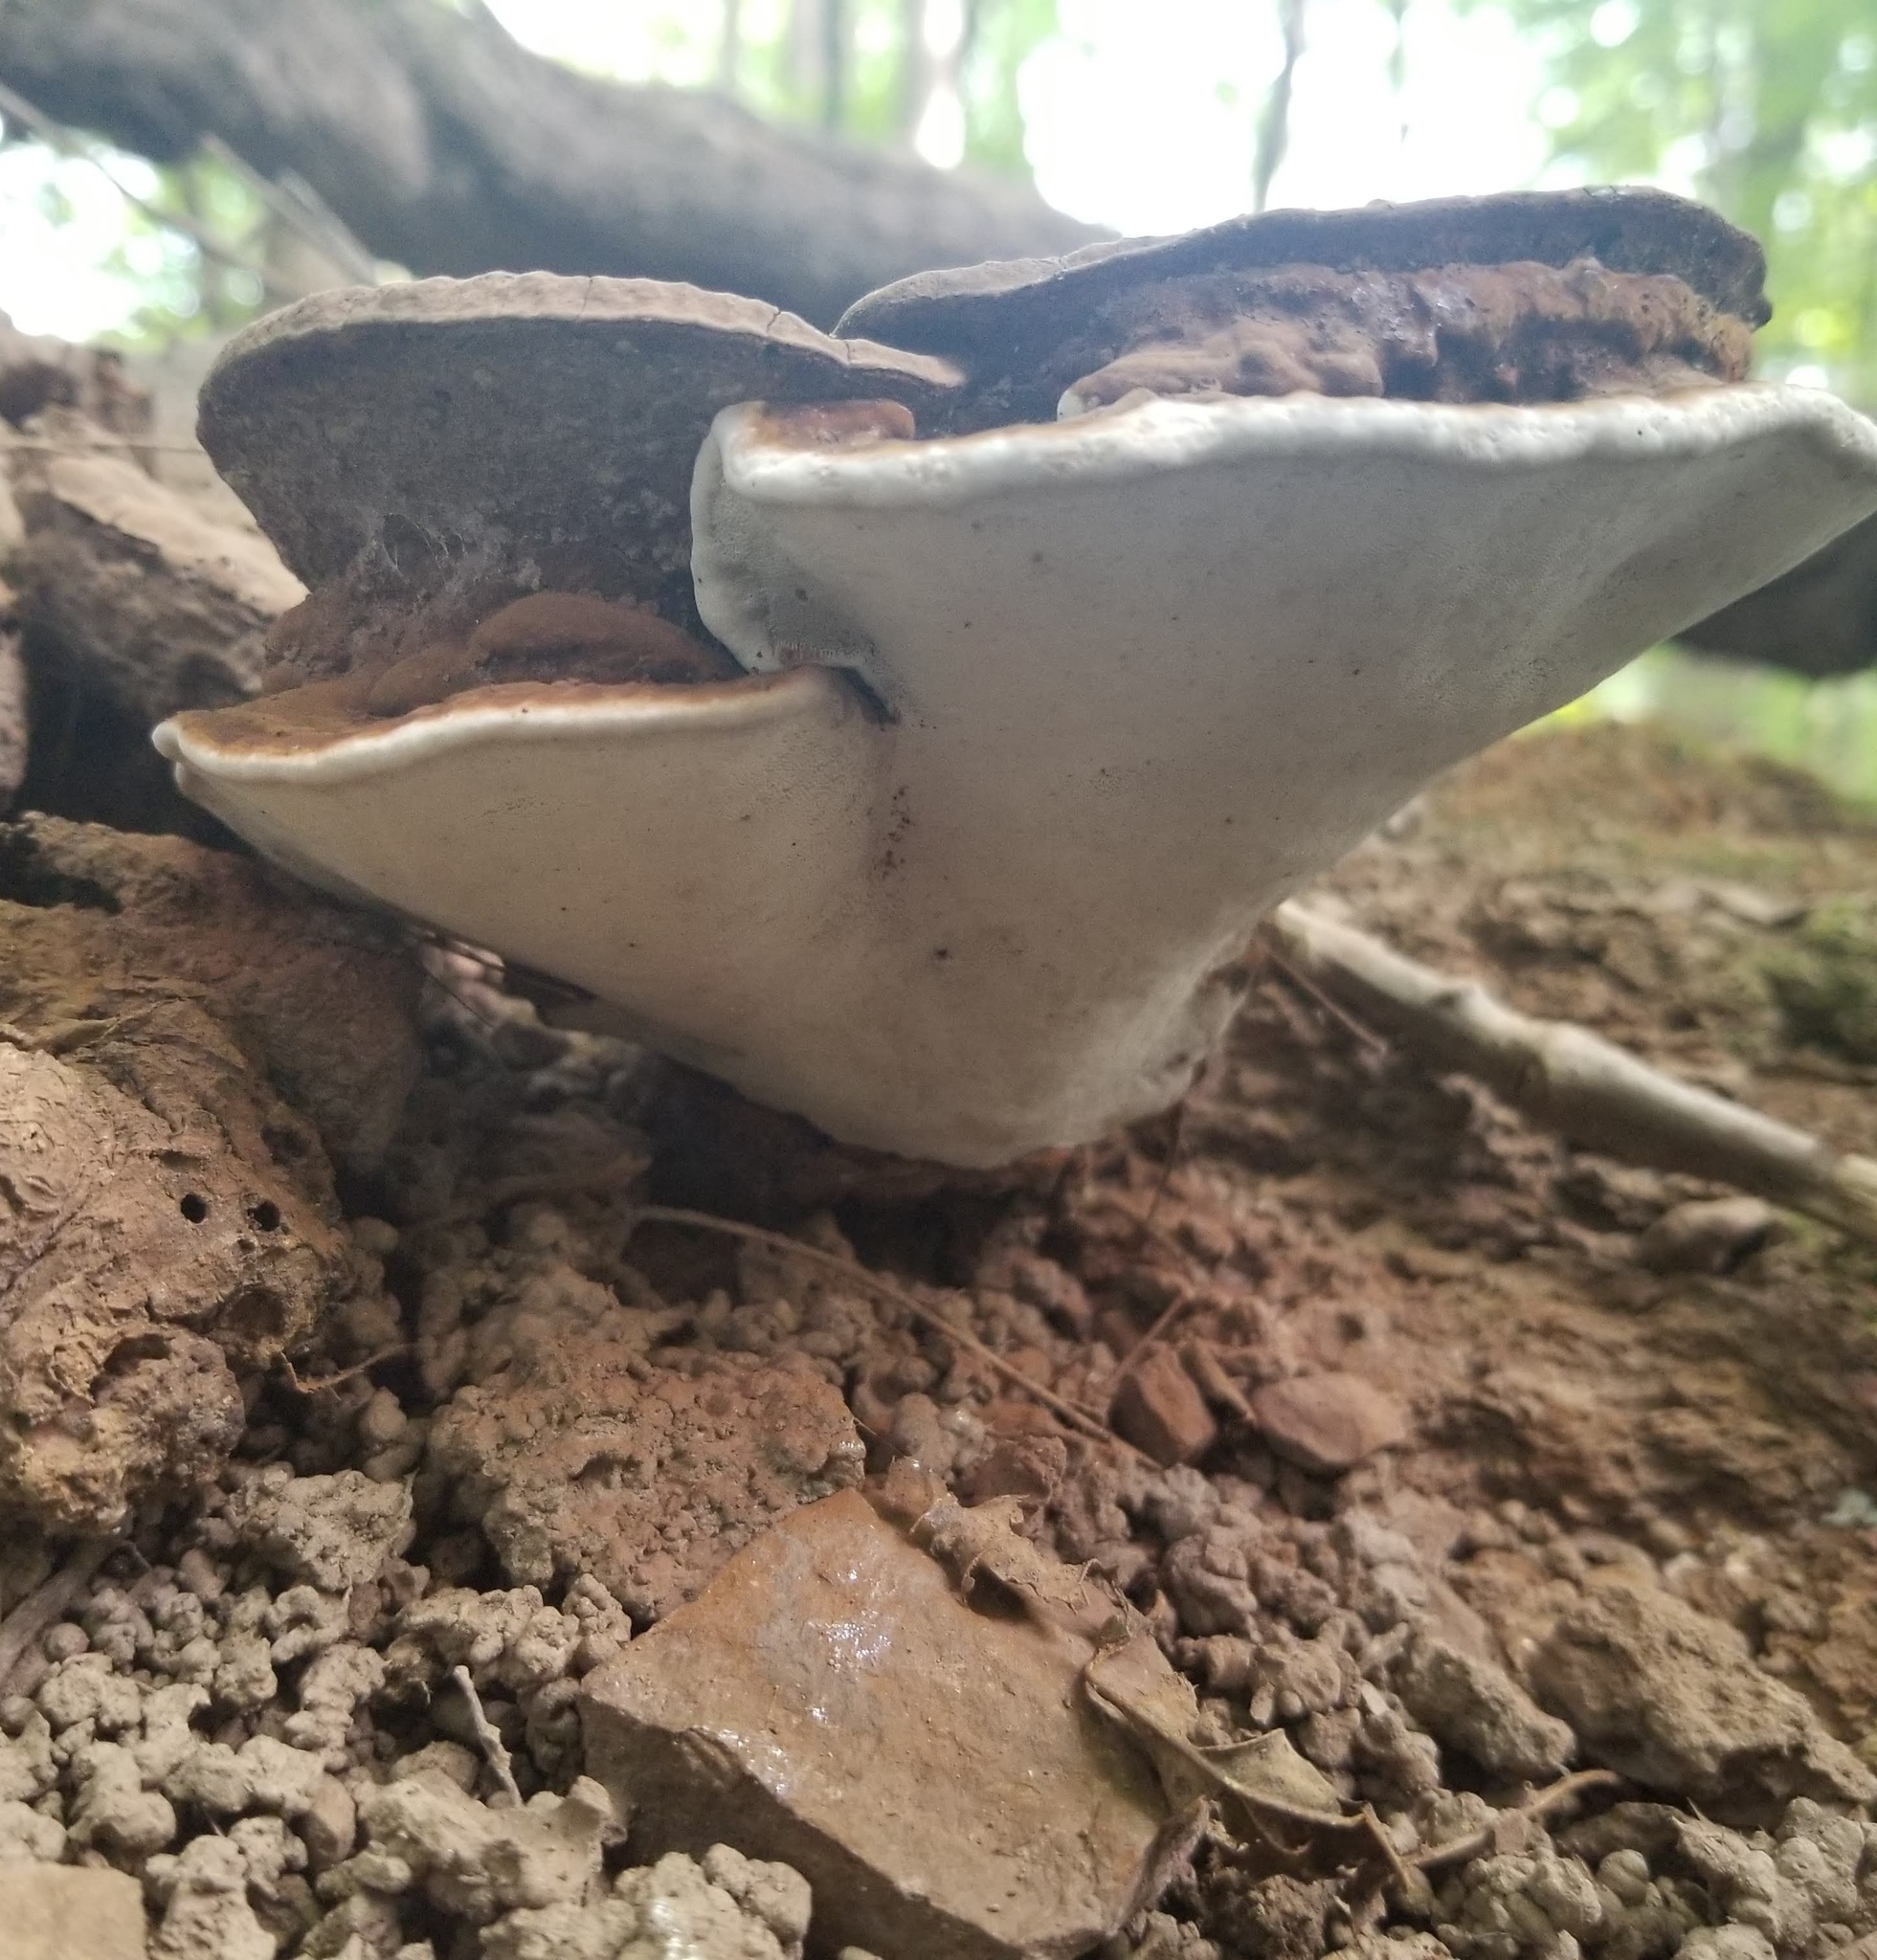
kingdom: Fungi
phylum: Basidiomycota
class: Agaricomycetes
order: Polyporales
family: Polyporaceae
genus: Ganoderma
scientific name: Ganoderma lobatum
